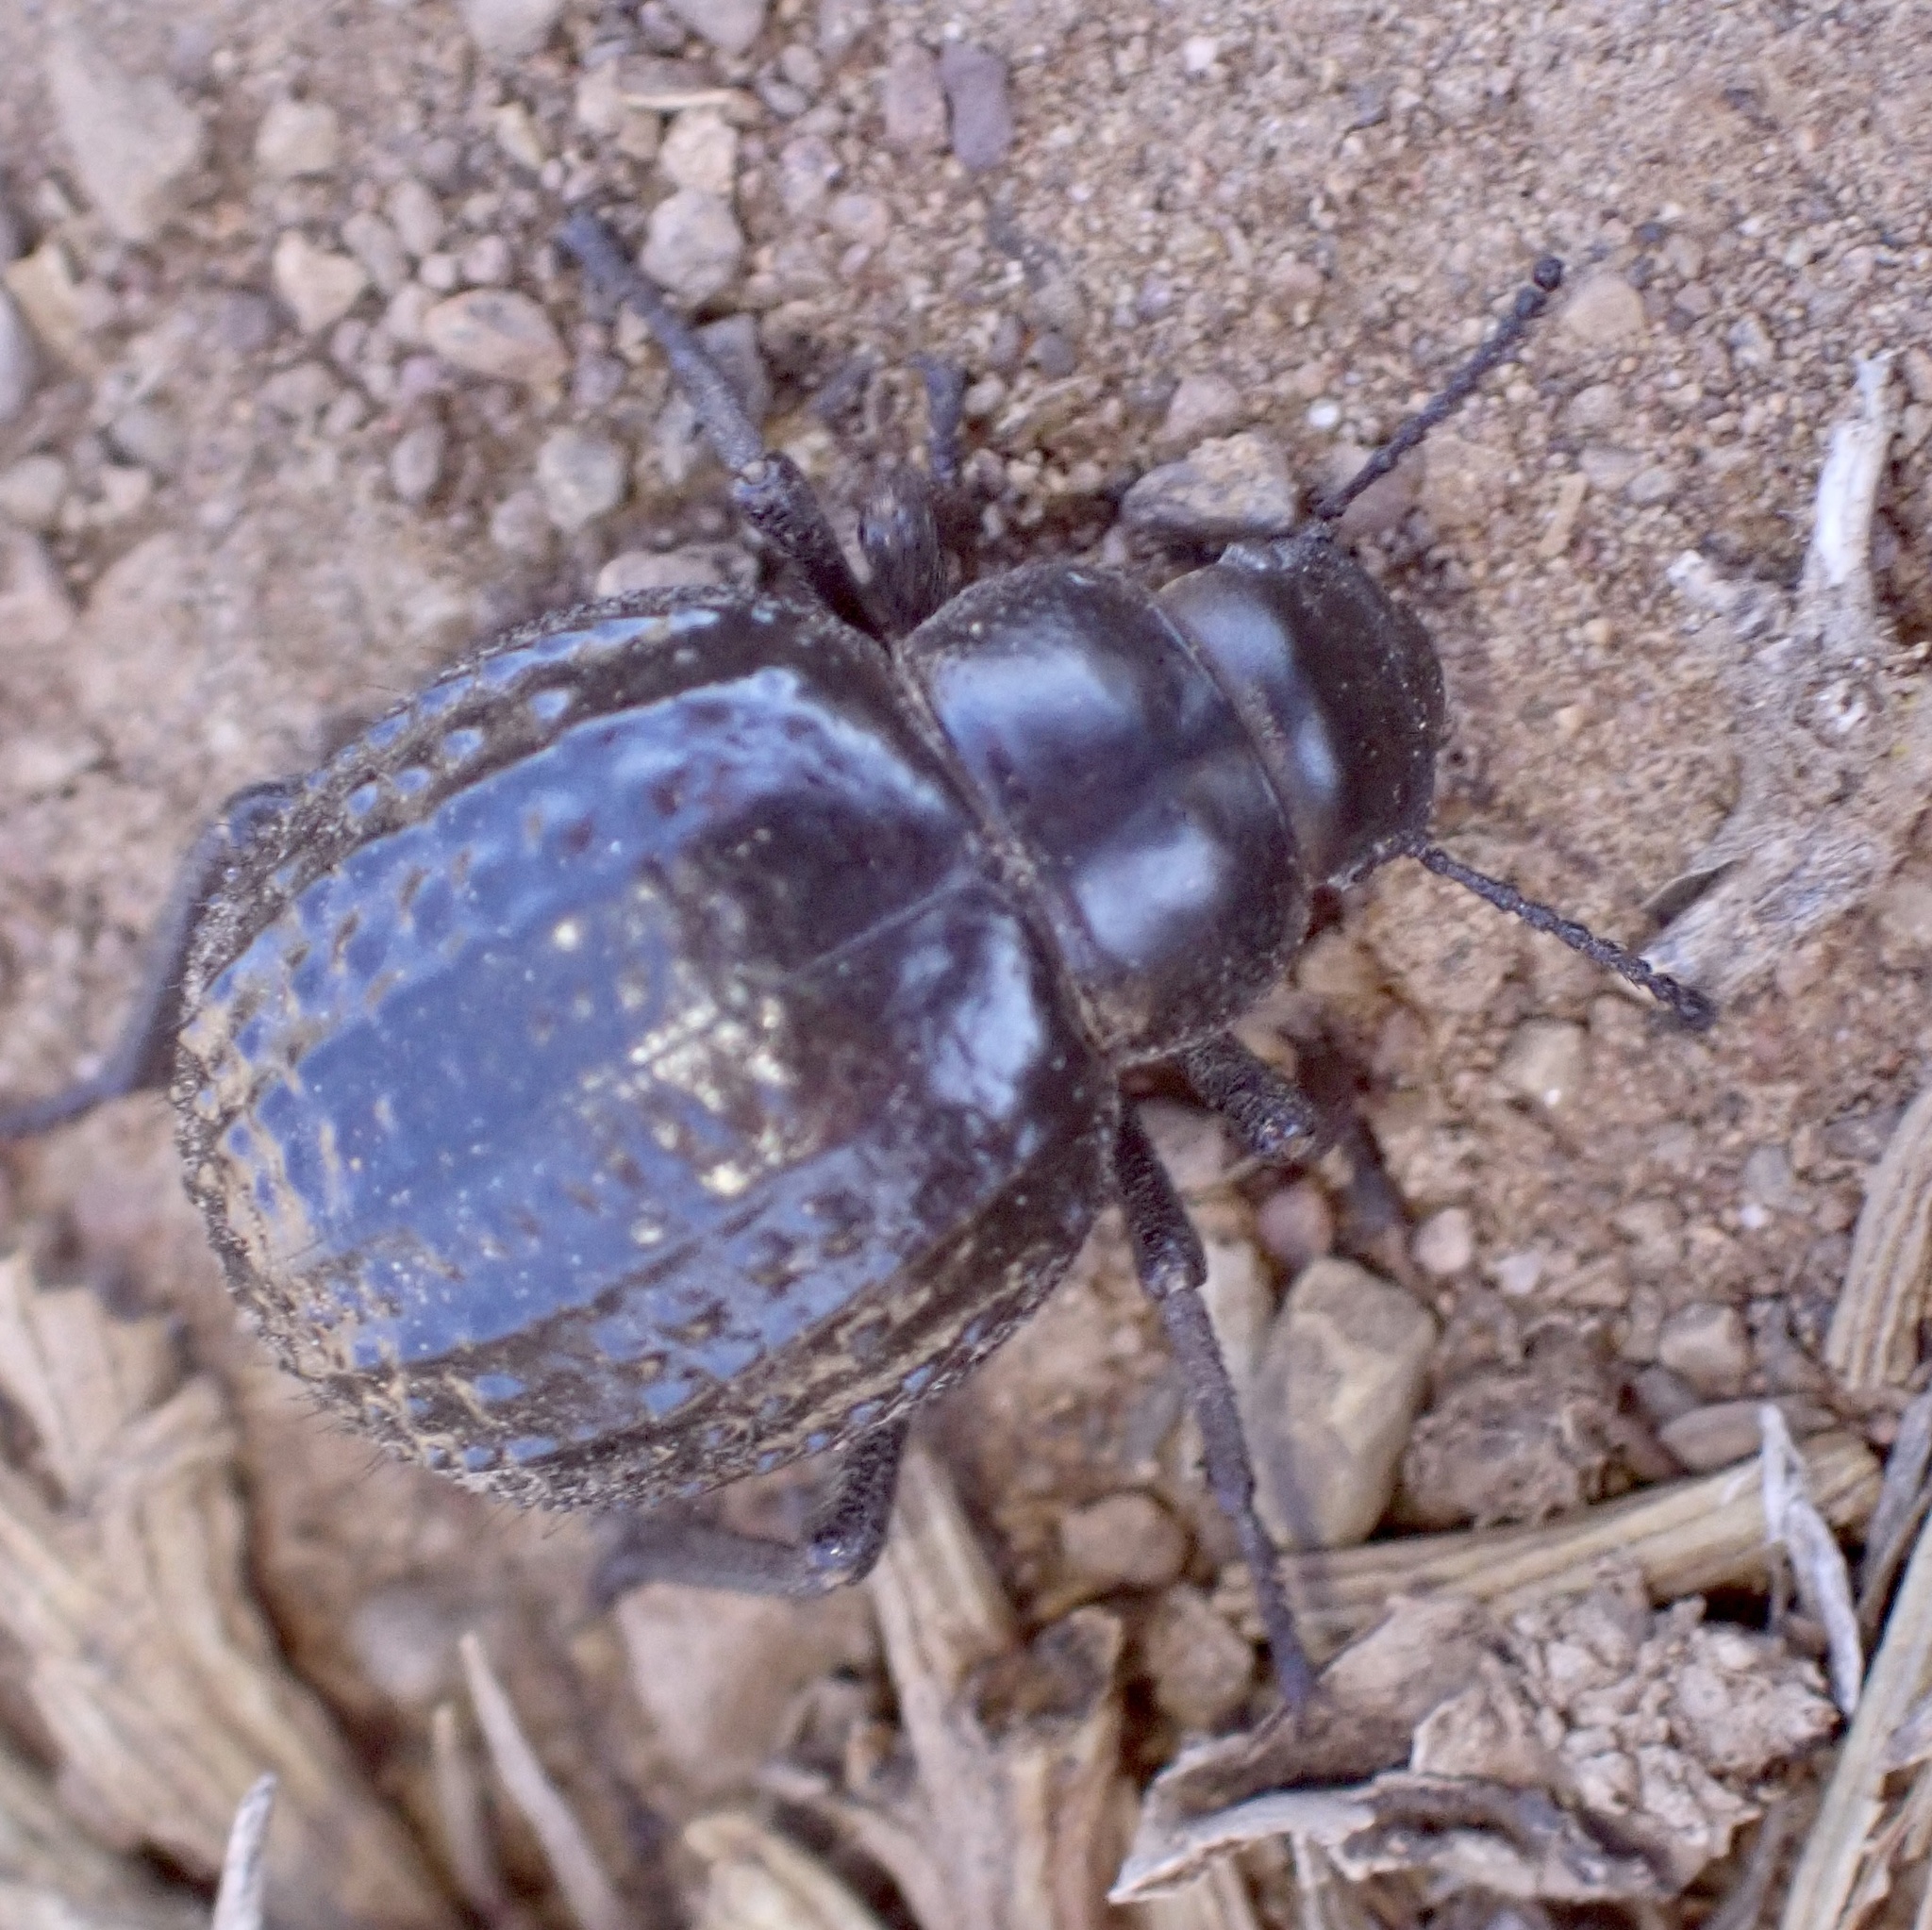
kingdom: Animalia
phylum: Arthropoda
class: Insecta
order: Coleoptera
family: Tenebrionidae
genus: Pimelia
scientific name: Pimelia rugosa
